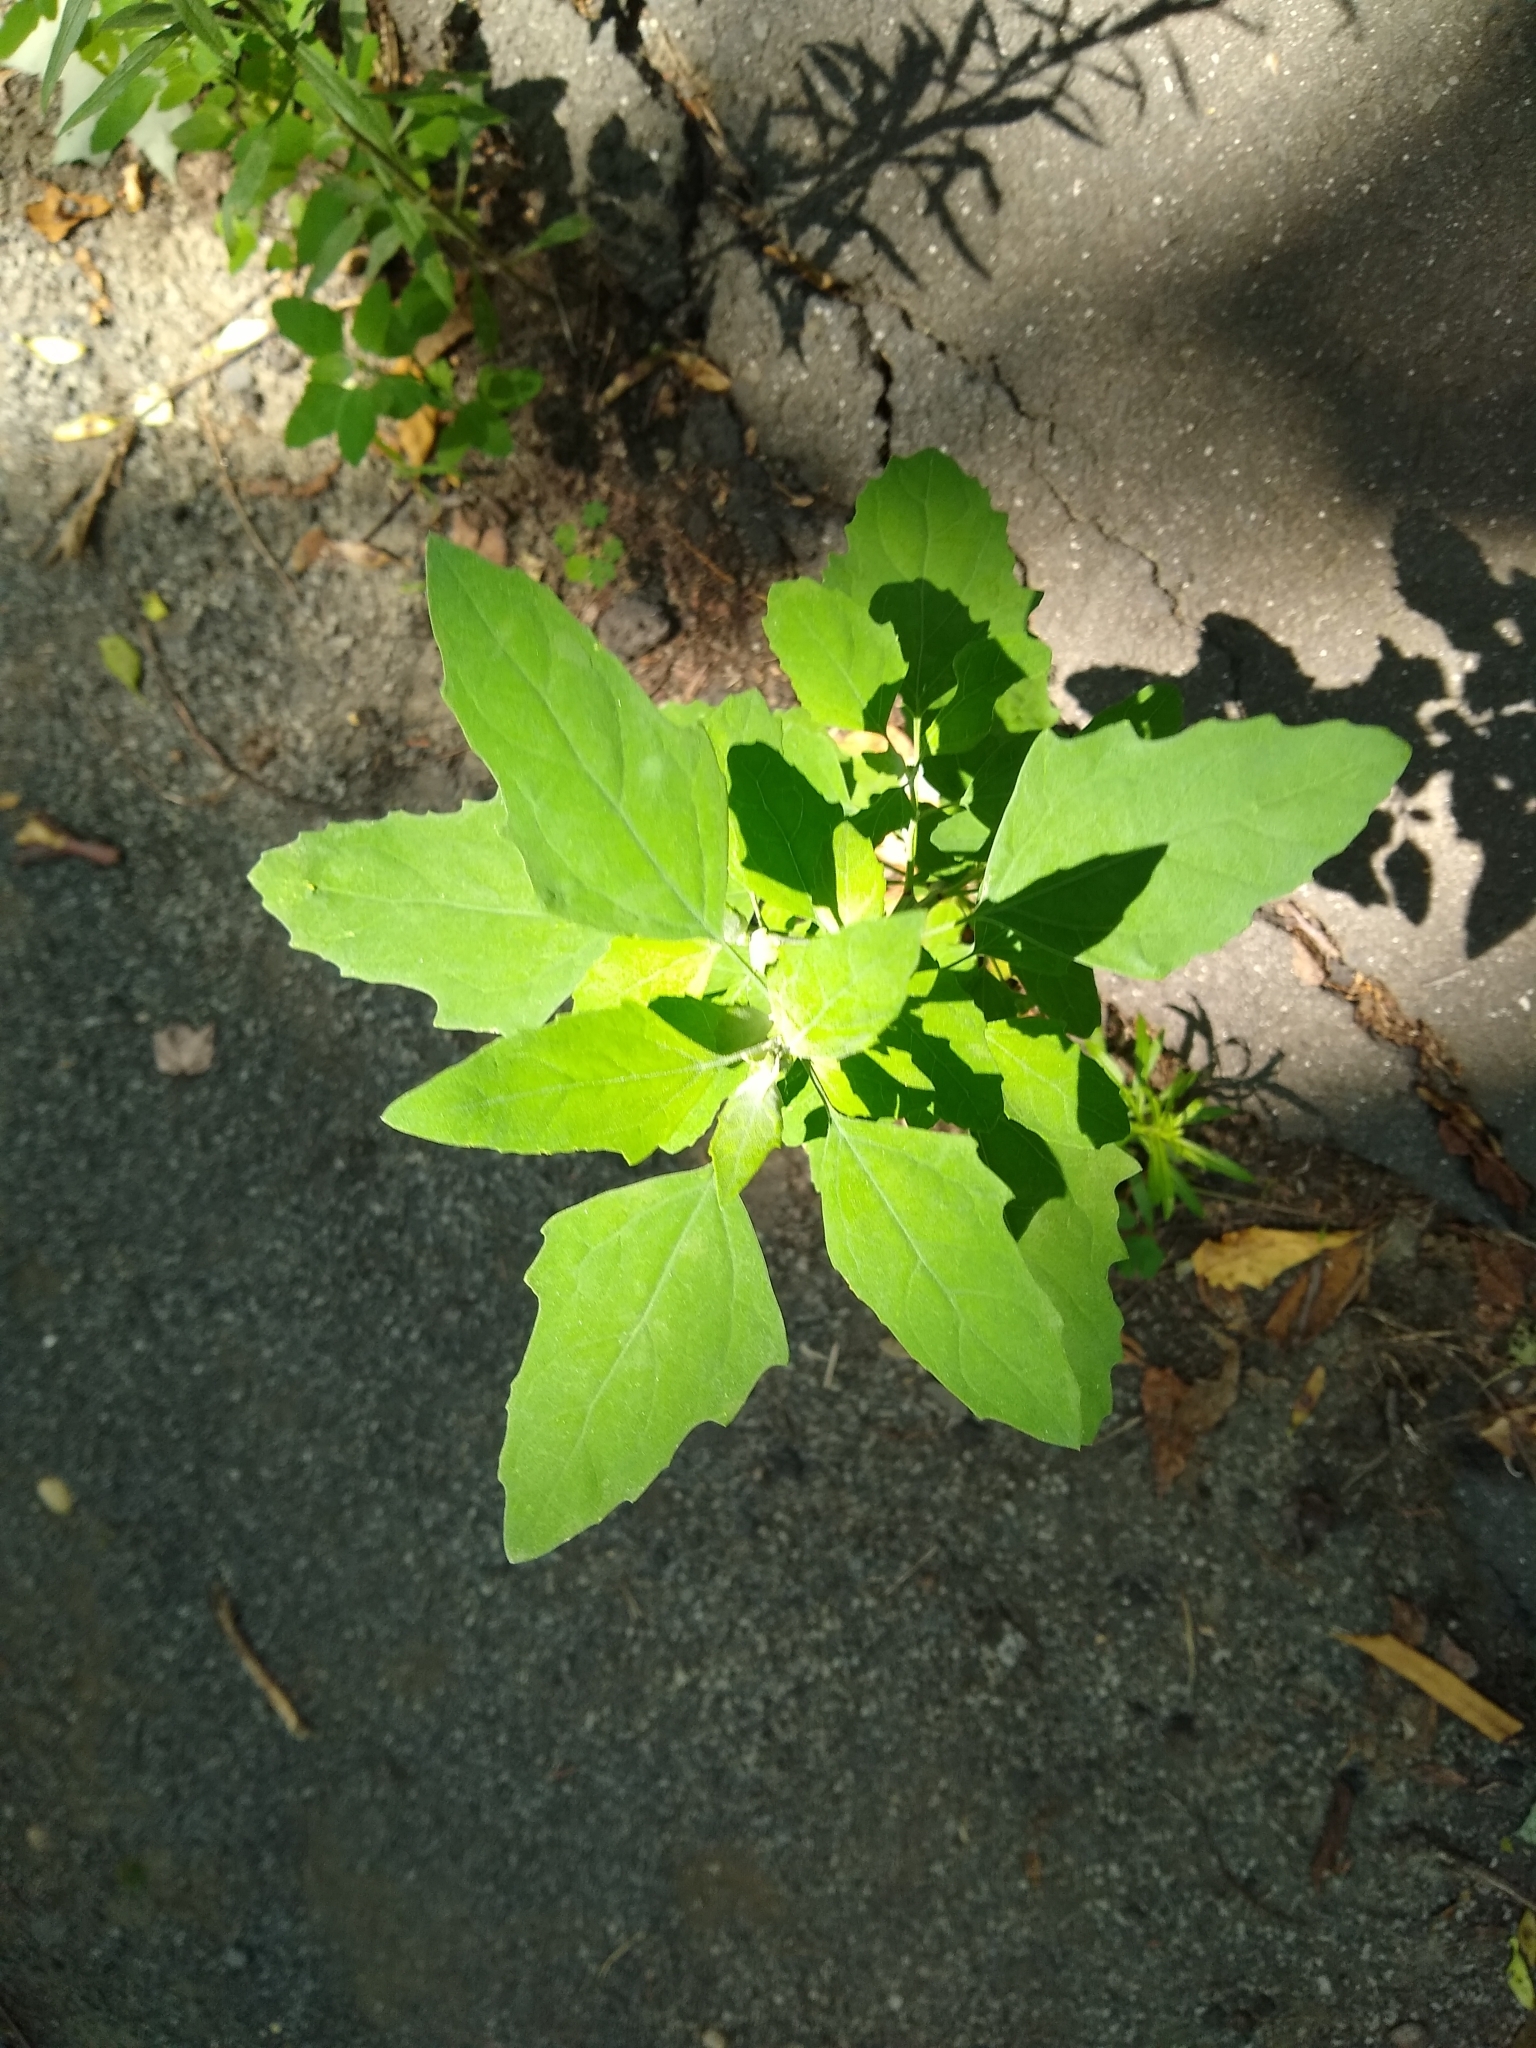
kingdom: Plantae
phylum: Tracheophyta
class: Magnoliopsida
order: Caryophyllales
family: Amaranthaceae
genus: Chenopodium
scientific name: Chenopodium album
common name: Fat-hen
